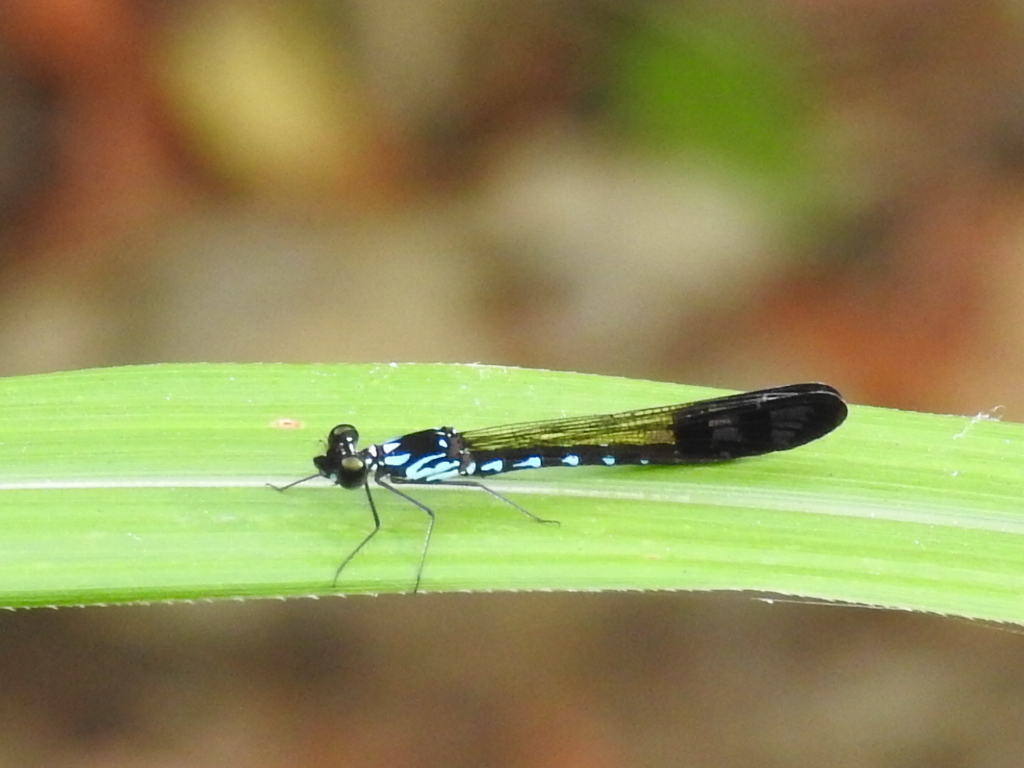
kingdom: Animalia
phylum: Arthropoda
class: Insecta
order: Odonata
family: Chlorocyphidae
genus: Heliocypha
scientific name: Heliocypha perforata
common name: Common blue jewel
